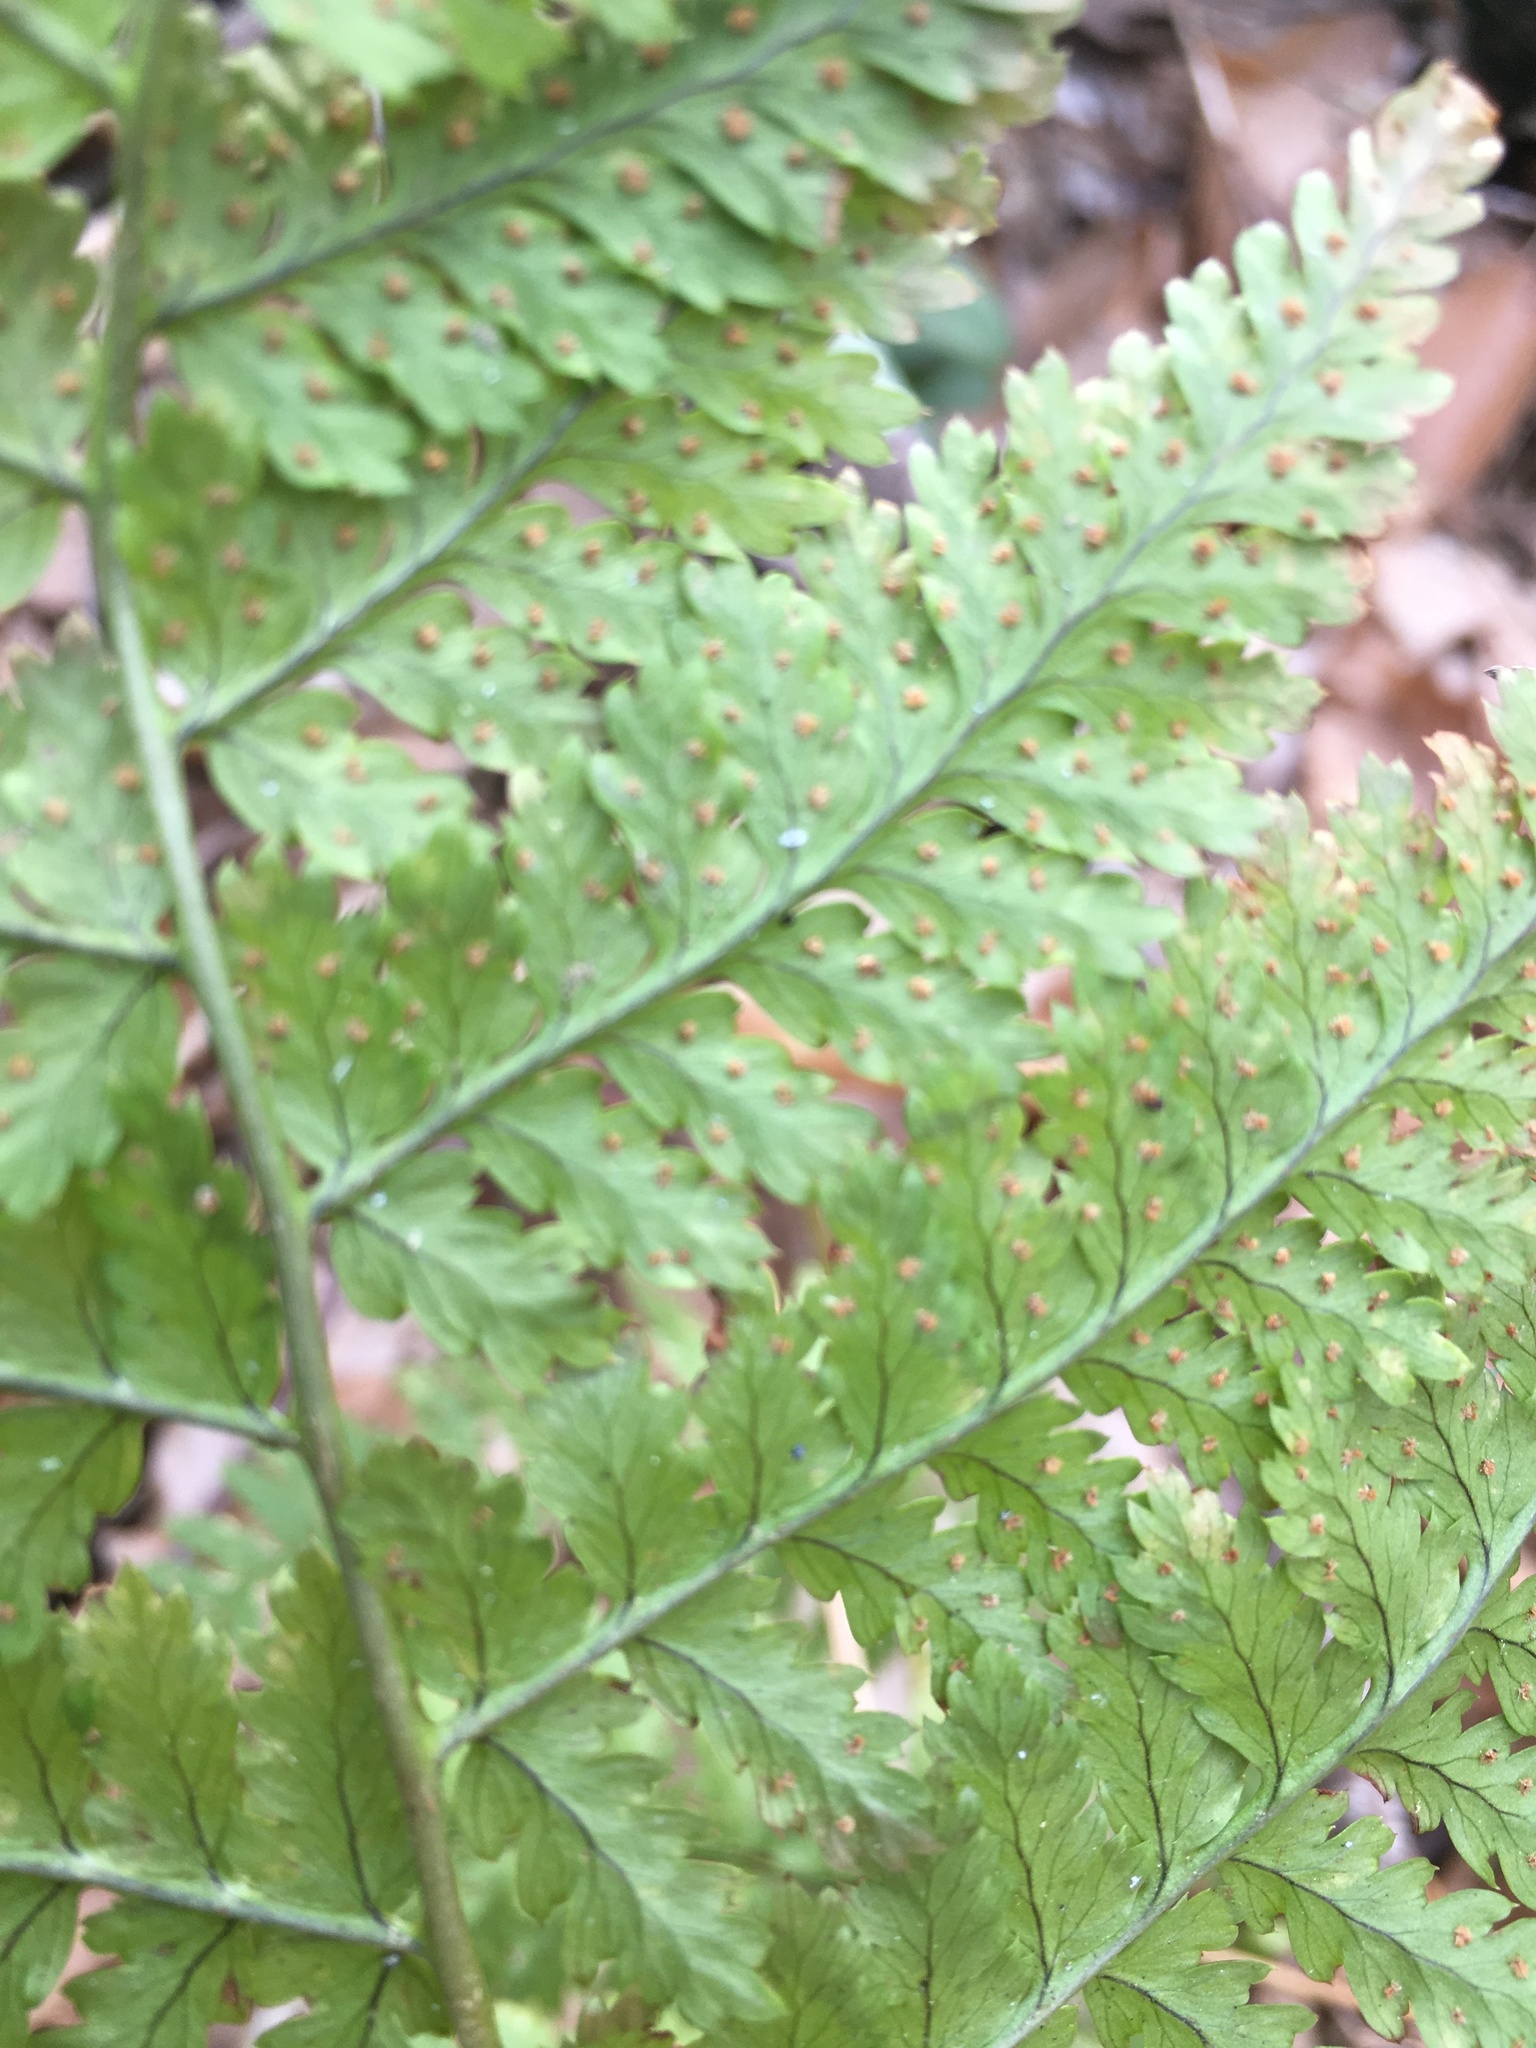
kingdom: Plantae
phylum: Tracheophyta
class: Polypodiopsida
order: Polypodiales
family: Dryopteridaceae
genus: Dryopteris
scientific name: Dryopteris intermedia
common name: Evergreen wood fern
